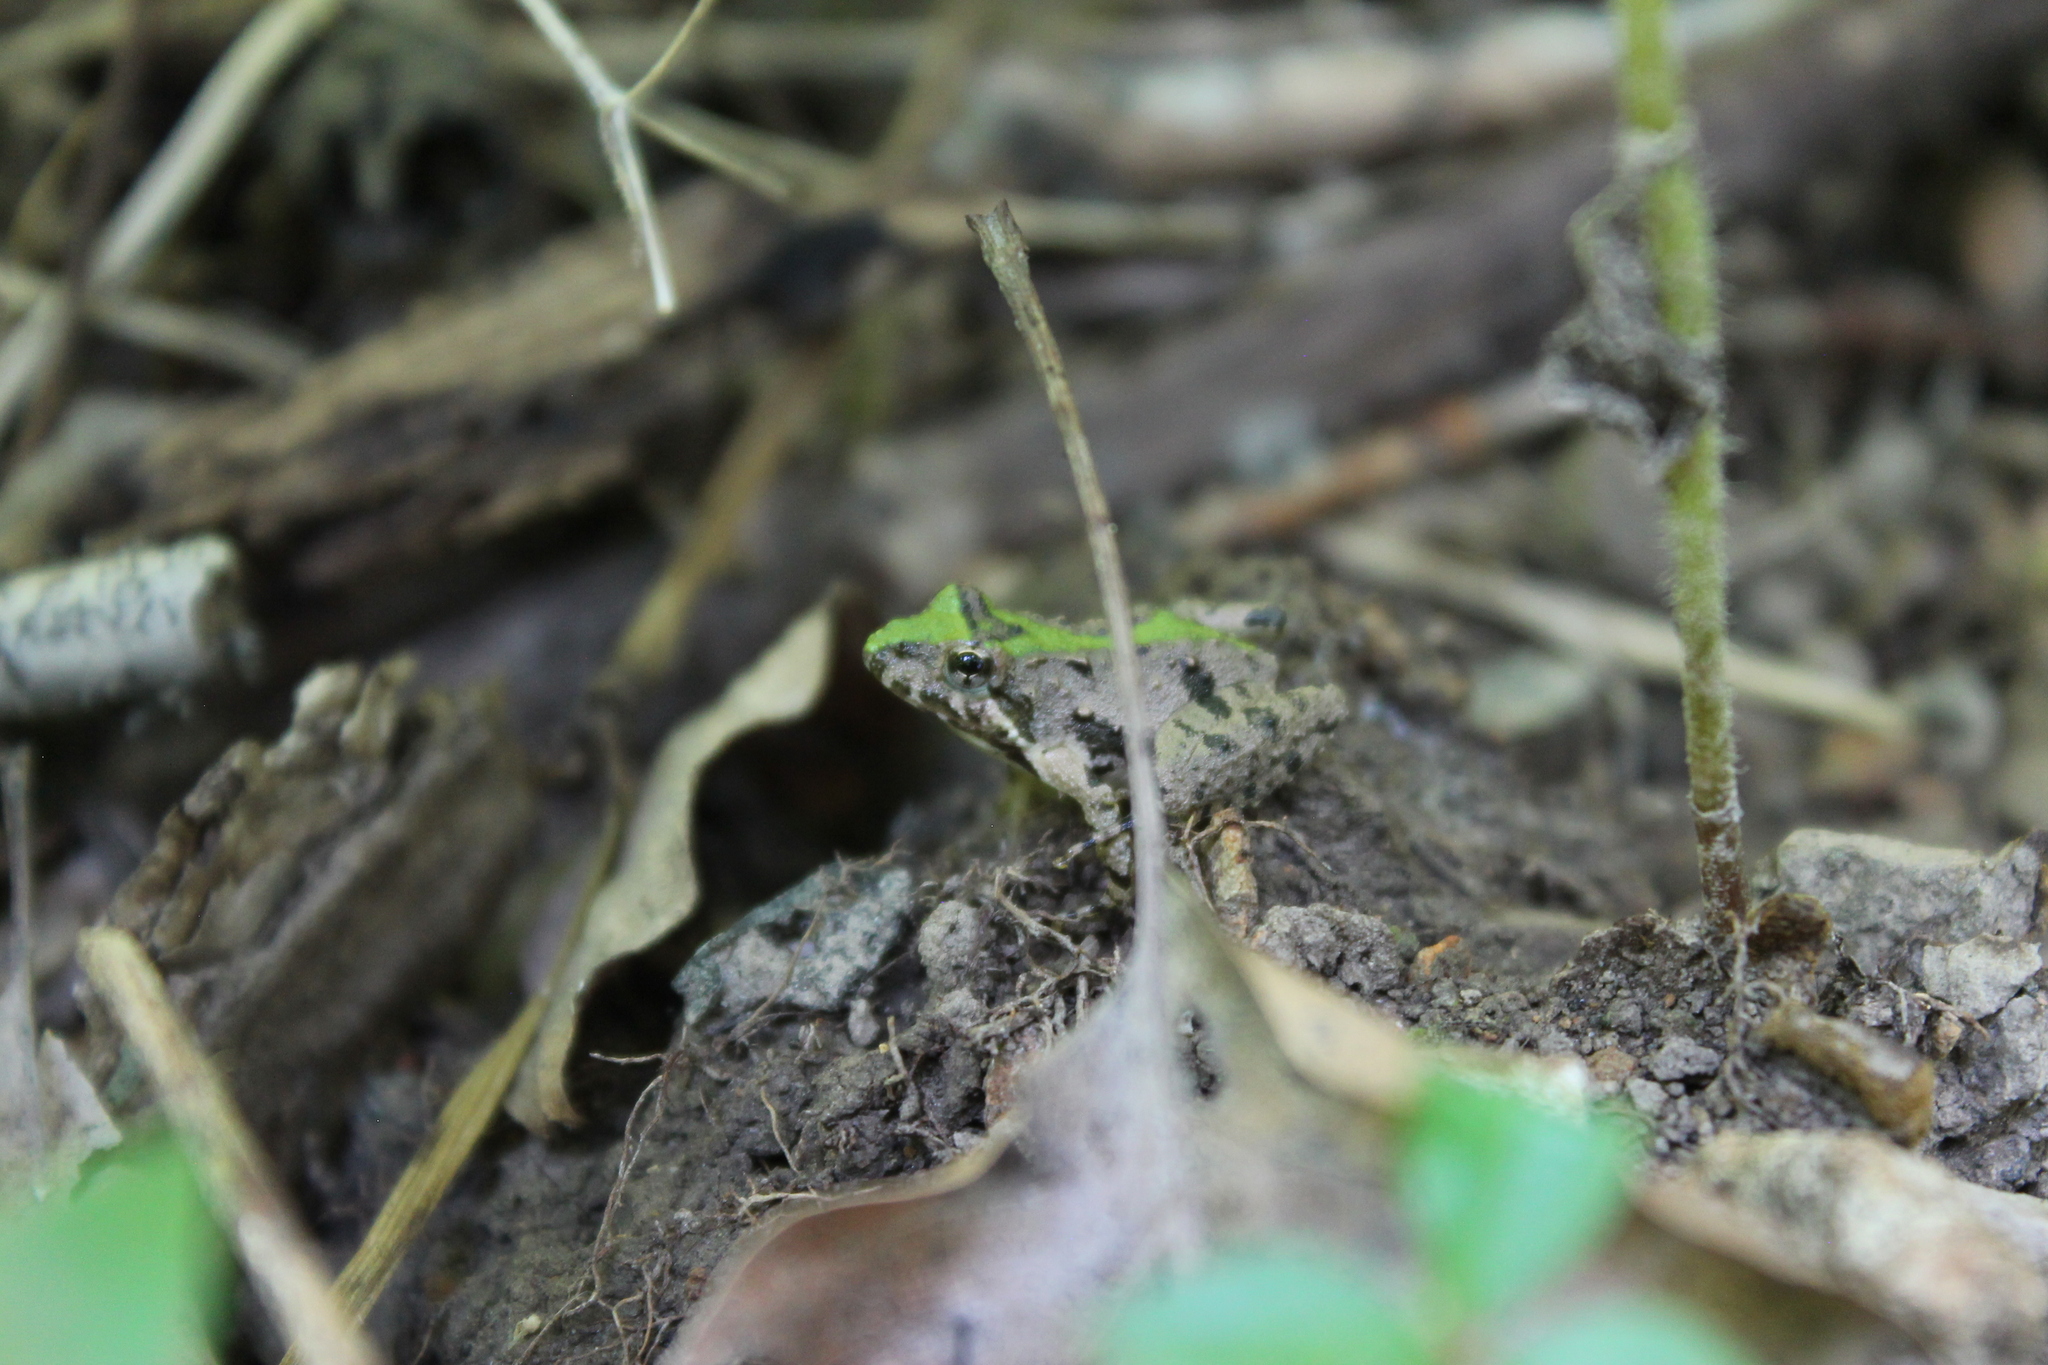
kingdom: Animalia
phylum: Chordata
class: Amphibia
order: Anura
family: Hylidae
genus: Acris
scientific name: Acris crepitans
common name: Northern cricket frog
